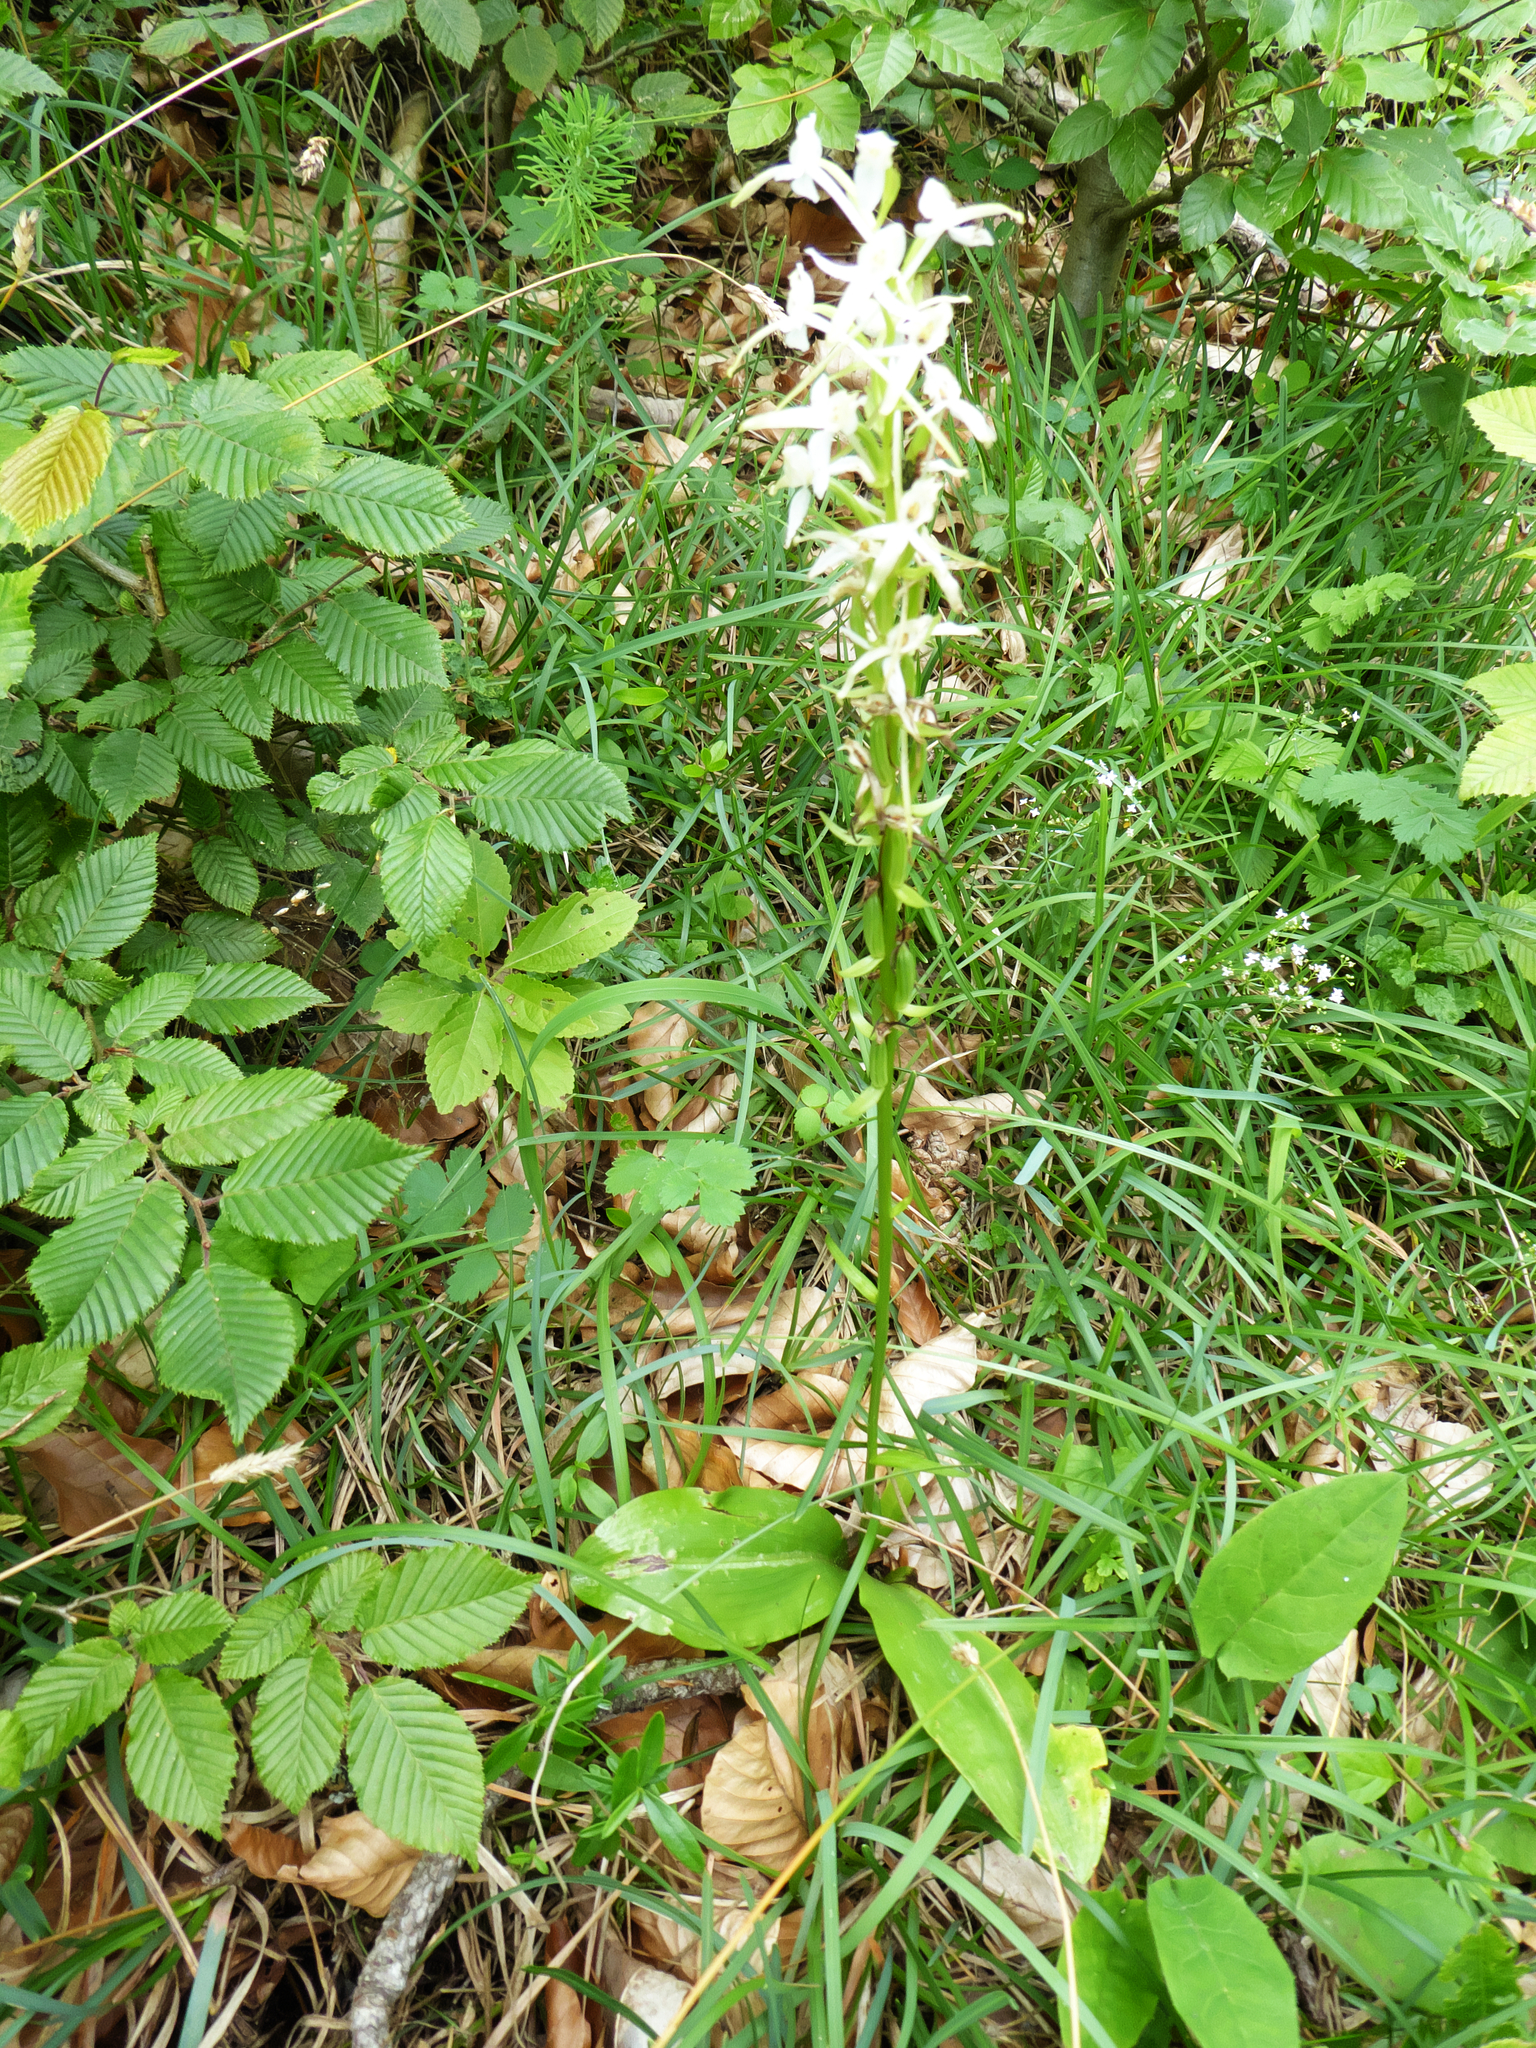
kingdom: Plantae
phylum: Tracheophyta
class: Liliopsida
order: Asparagales
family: Orchidaceae
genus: Platanthera
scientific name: Platanthera bifolia
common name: Lesser butterfly-orchid
